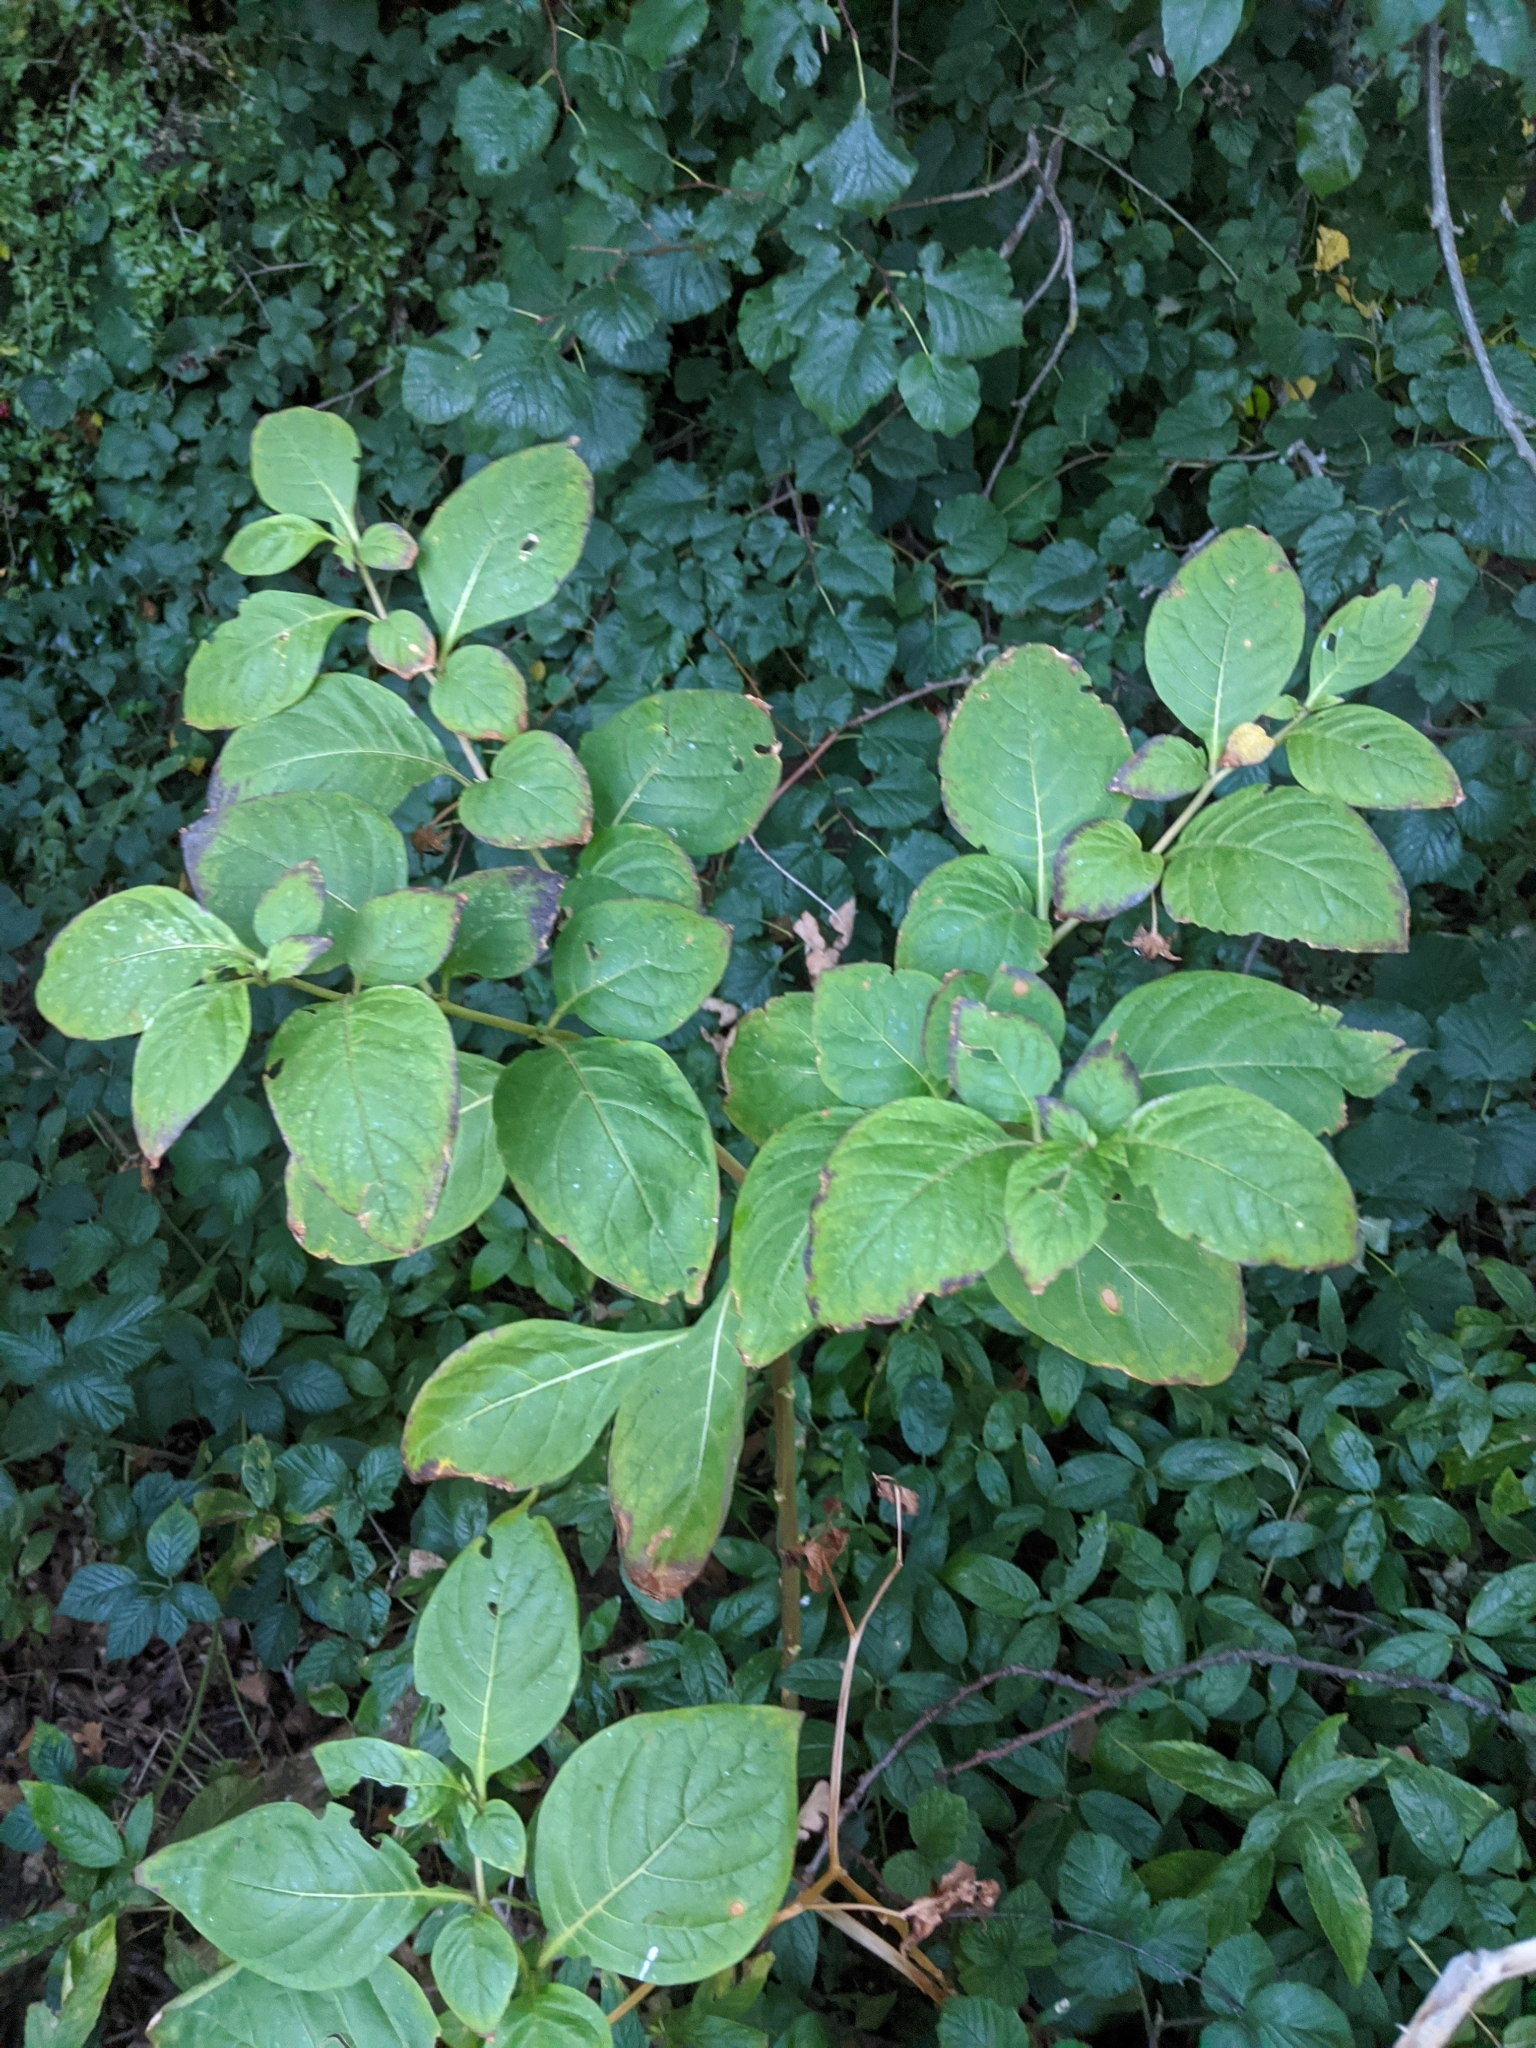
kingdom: Plantae
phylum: Tracheophyta
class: Magnoliopsida
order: Solanales
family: Solanaceae
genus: Atropa
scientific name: Atropa belladonna
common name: Deadly nightshade
